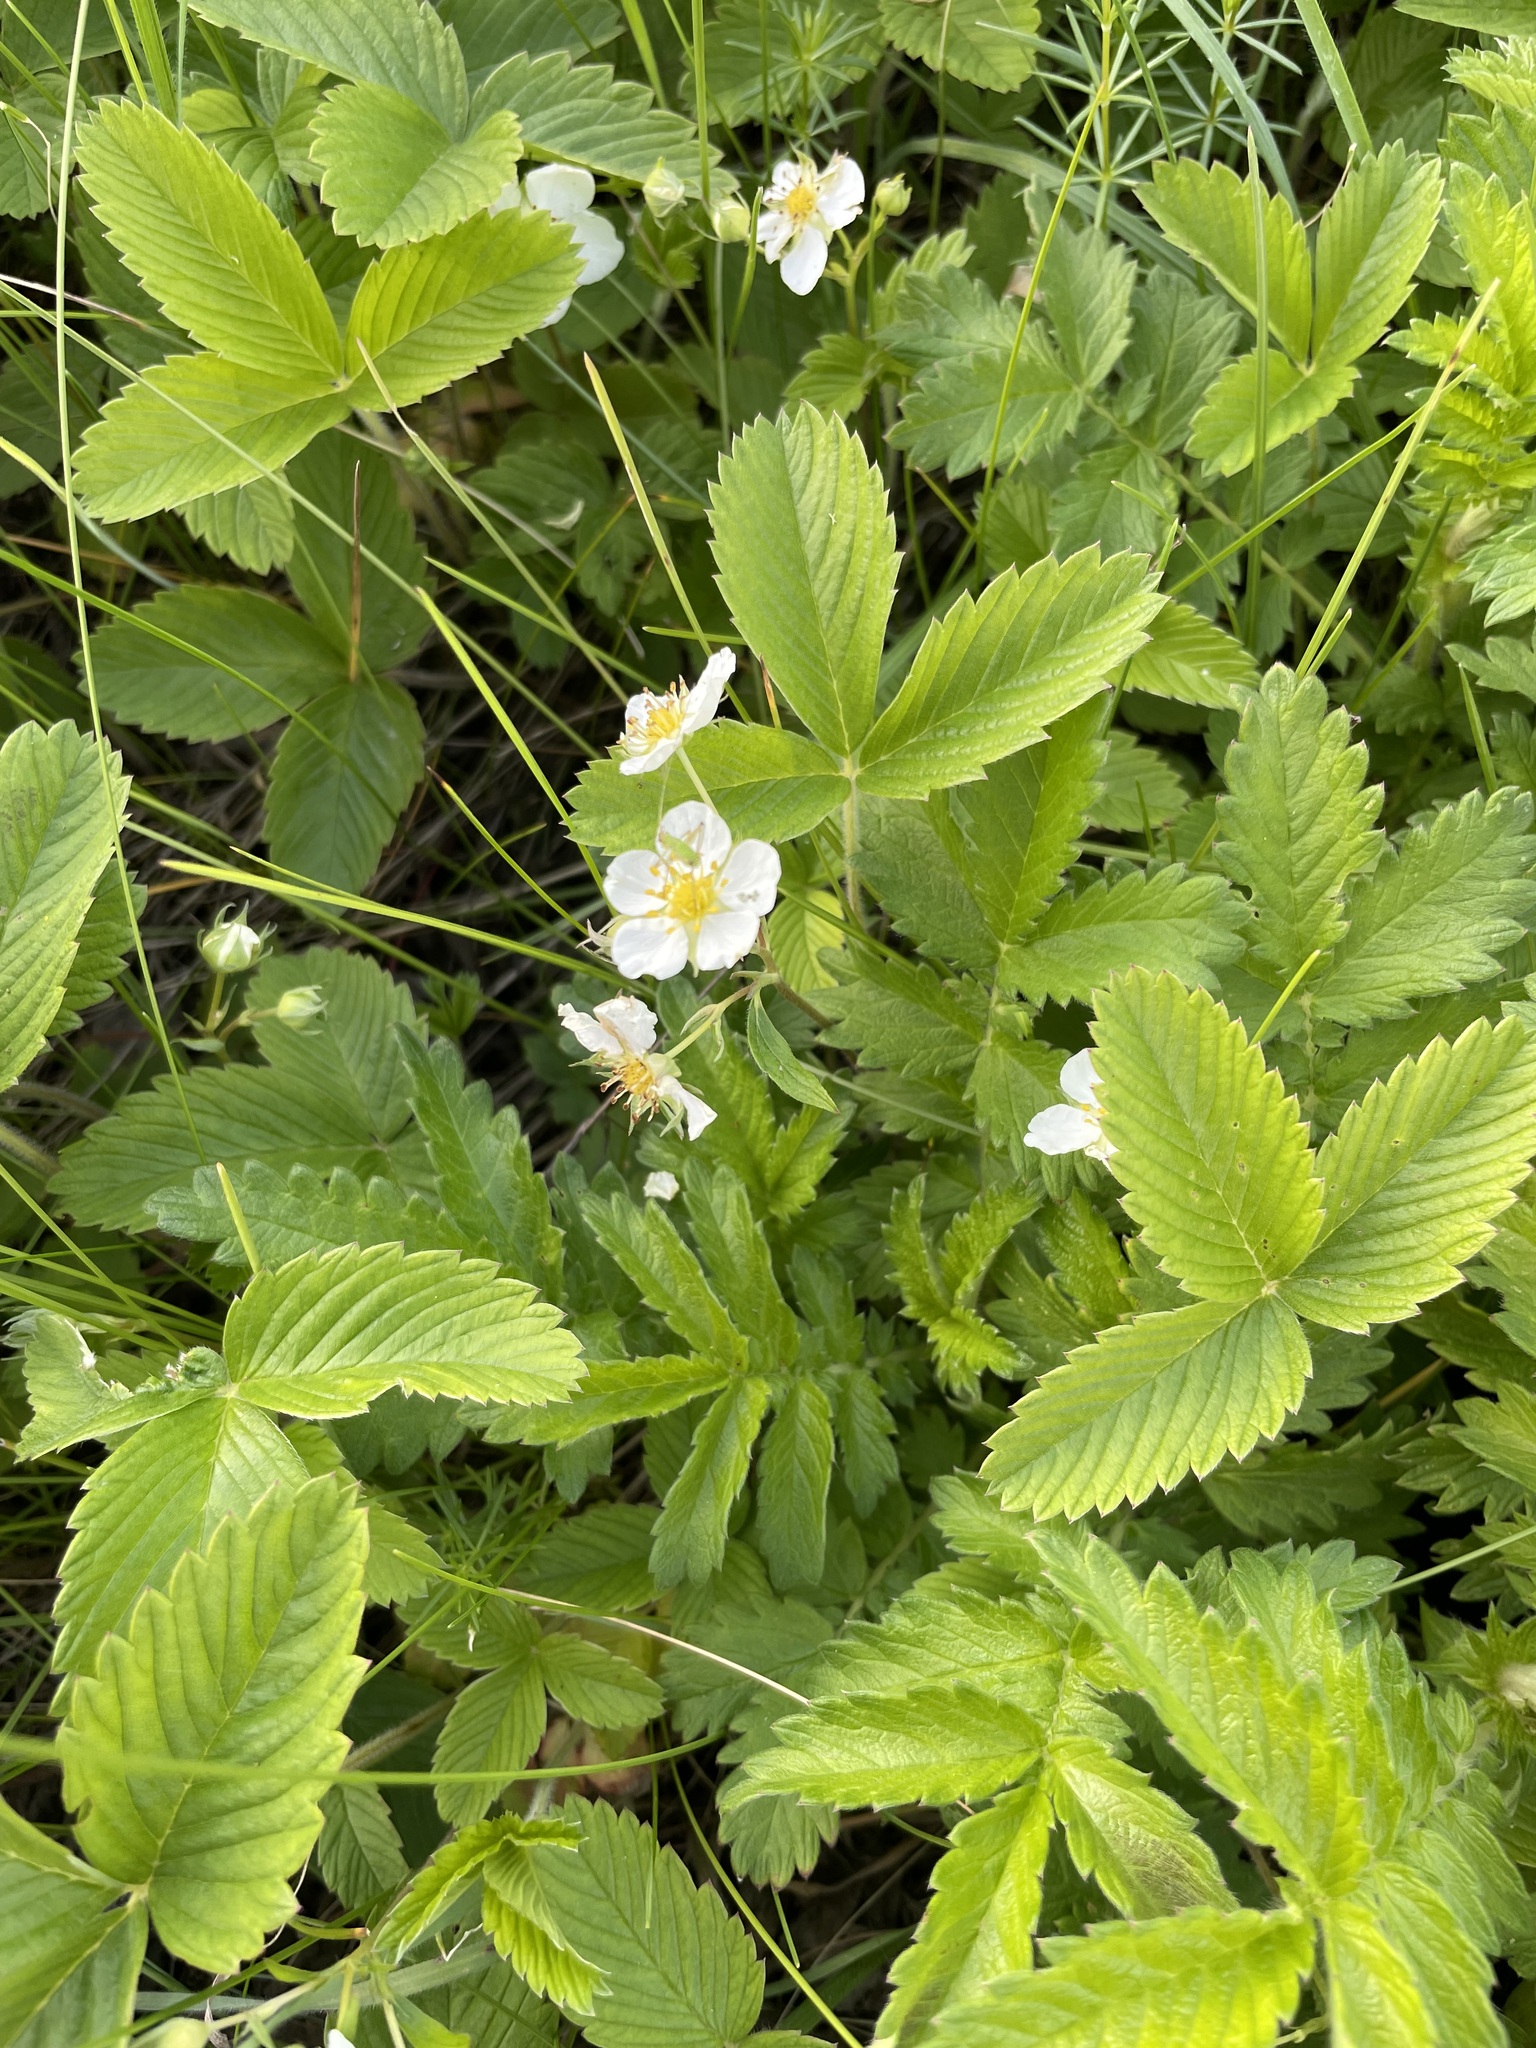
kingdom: Plantae
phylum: Tracheophyta
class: Magnoliopsida
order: Rosales
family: Rosaceae
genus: Fragaria
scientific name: Fragaria viridis
